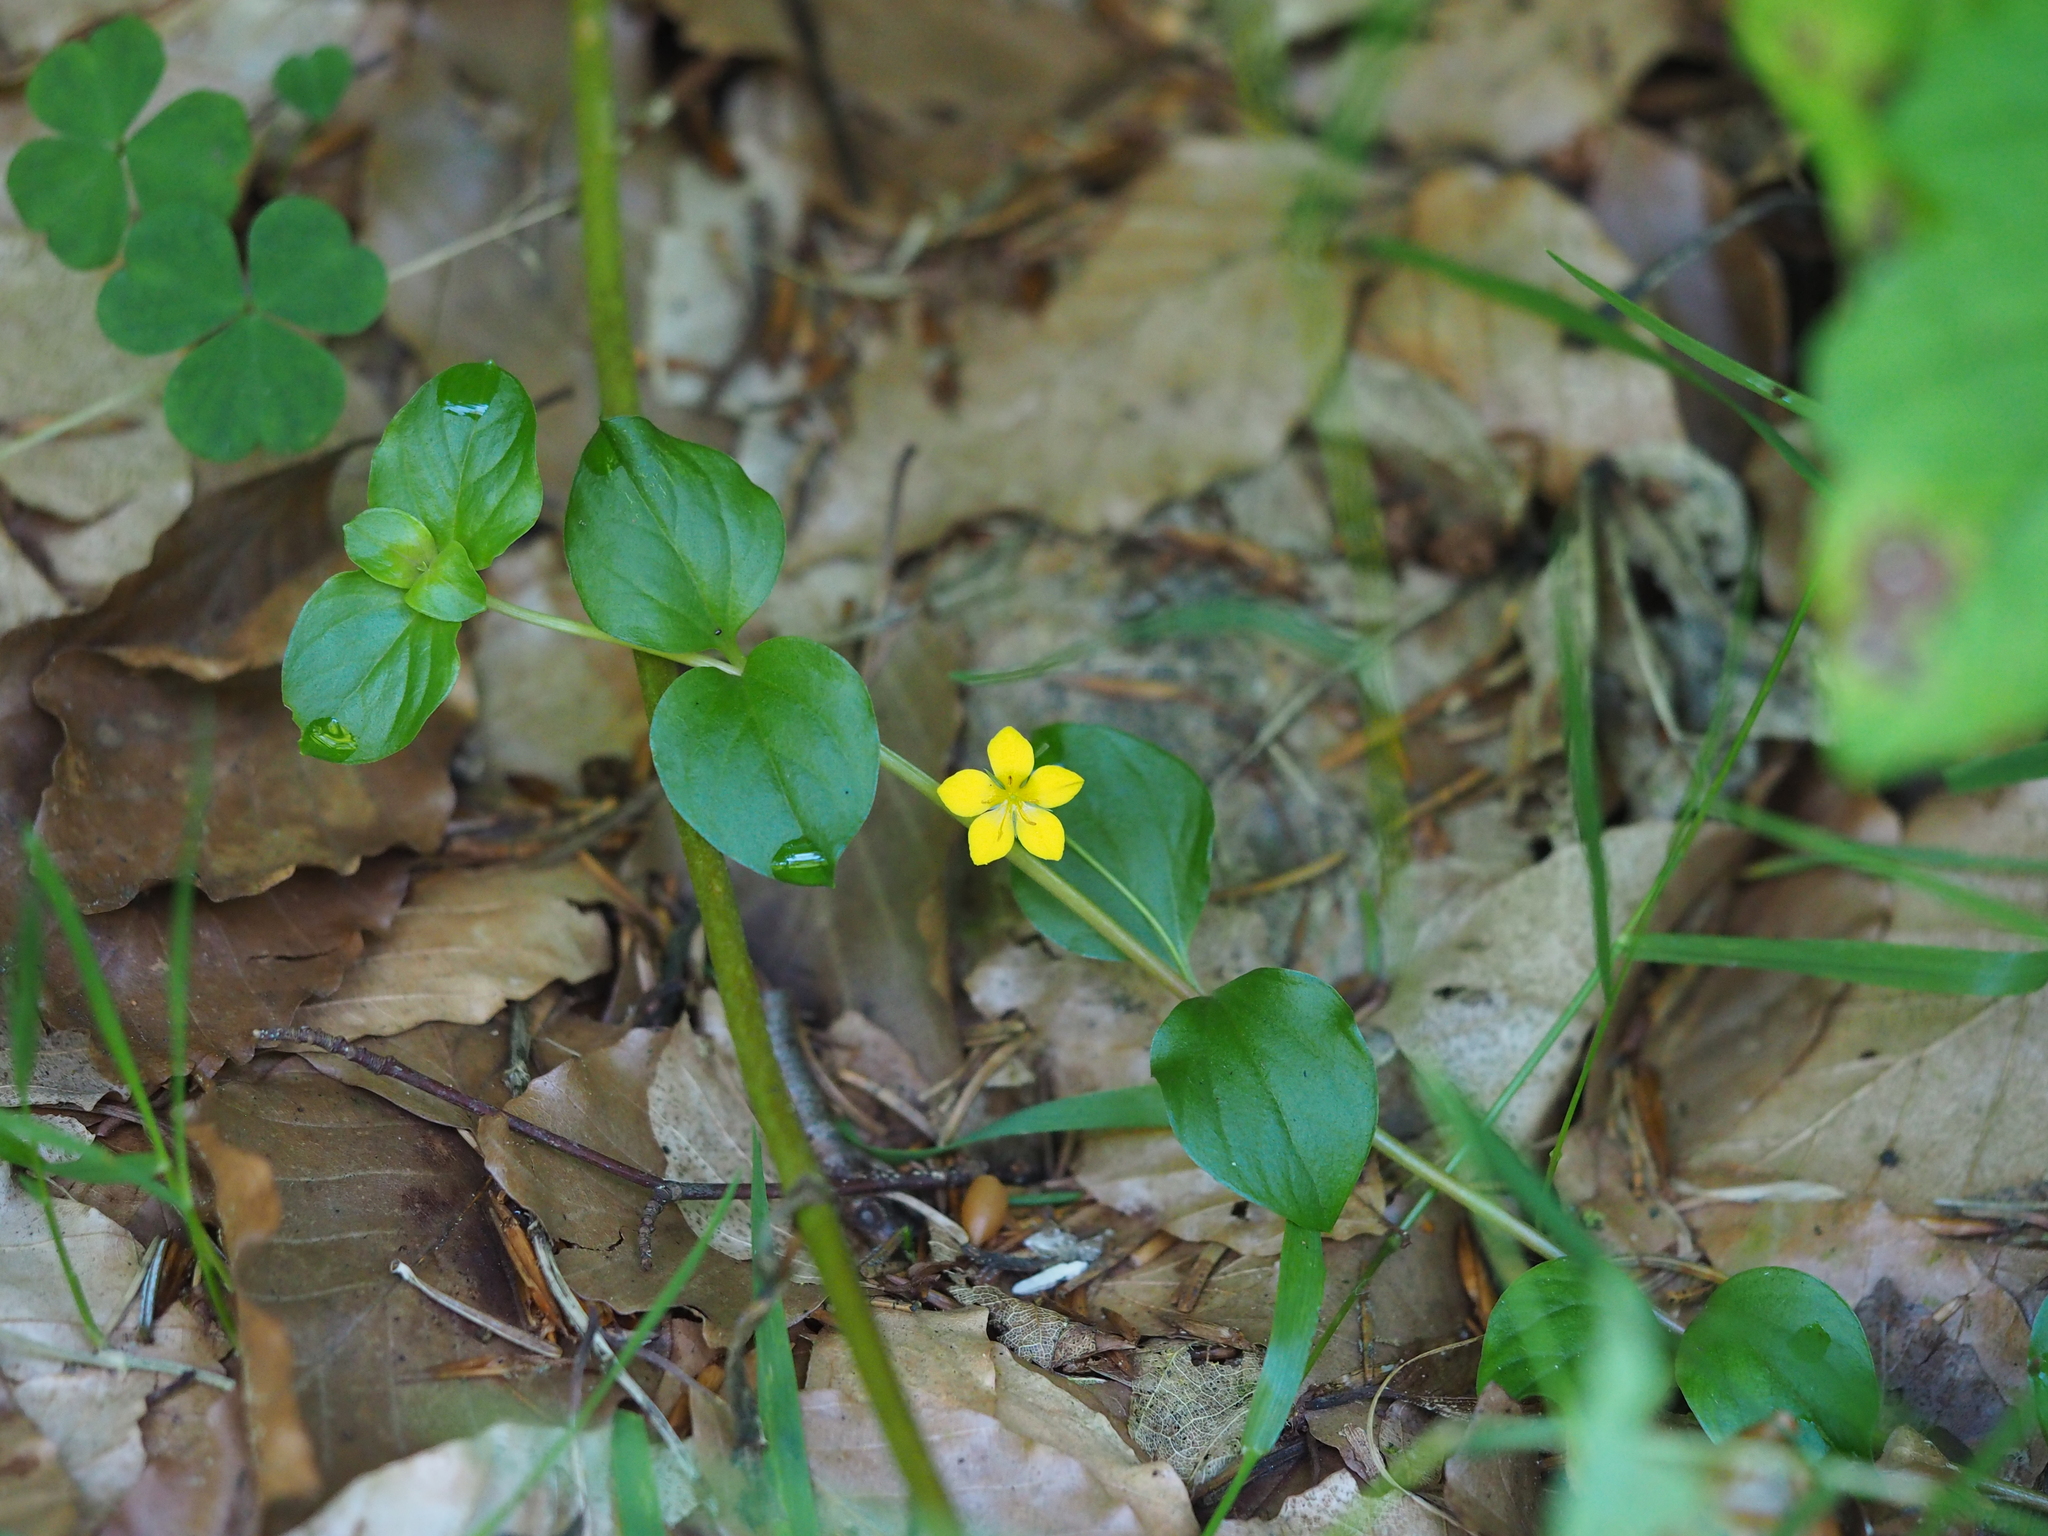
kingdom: Plantae
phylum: Tracheophyta
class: Magnoliopsida
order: Ericales
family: Primulaceae
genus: Lysimachia
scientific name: Lysimachia nemorum
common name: Yellow pimpernel
